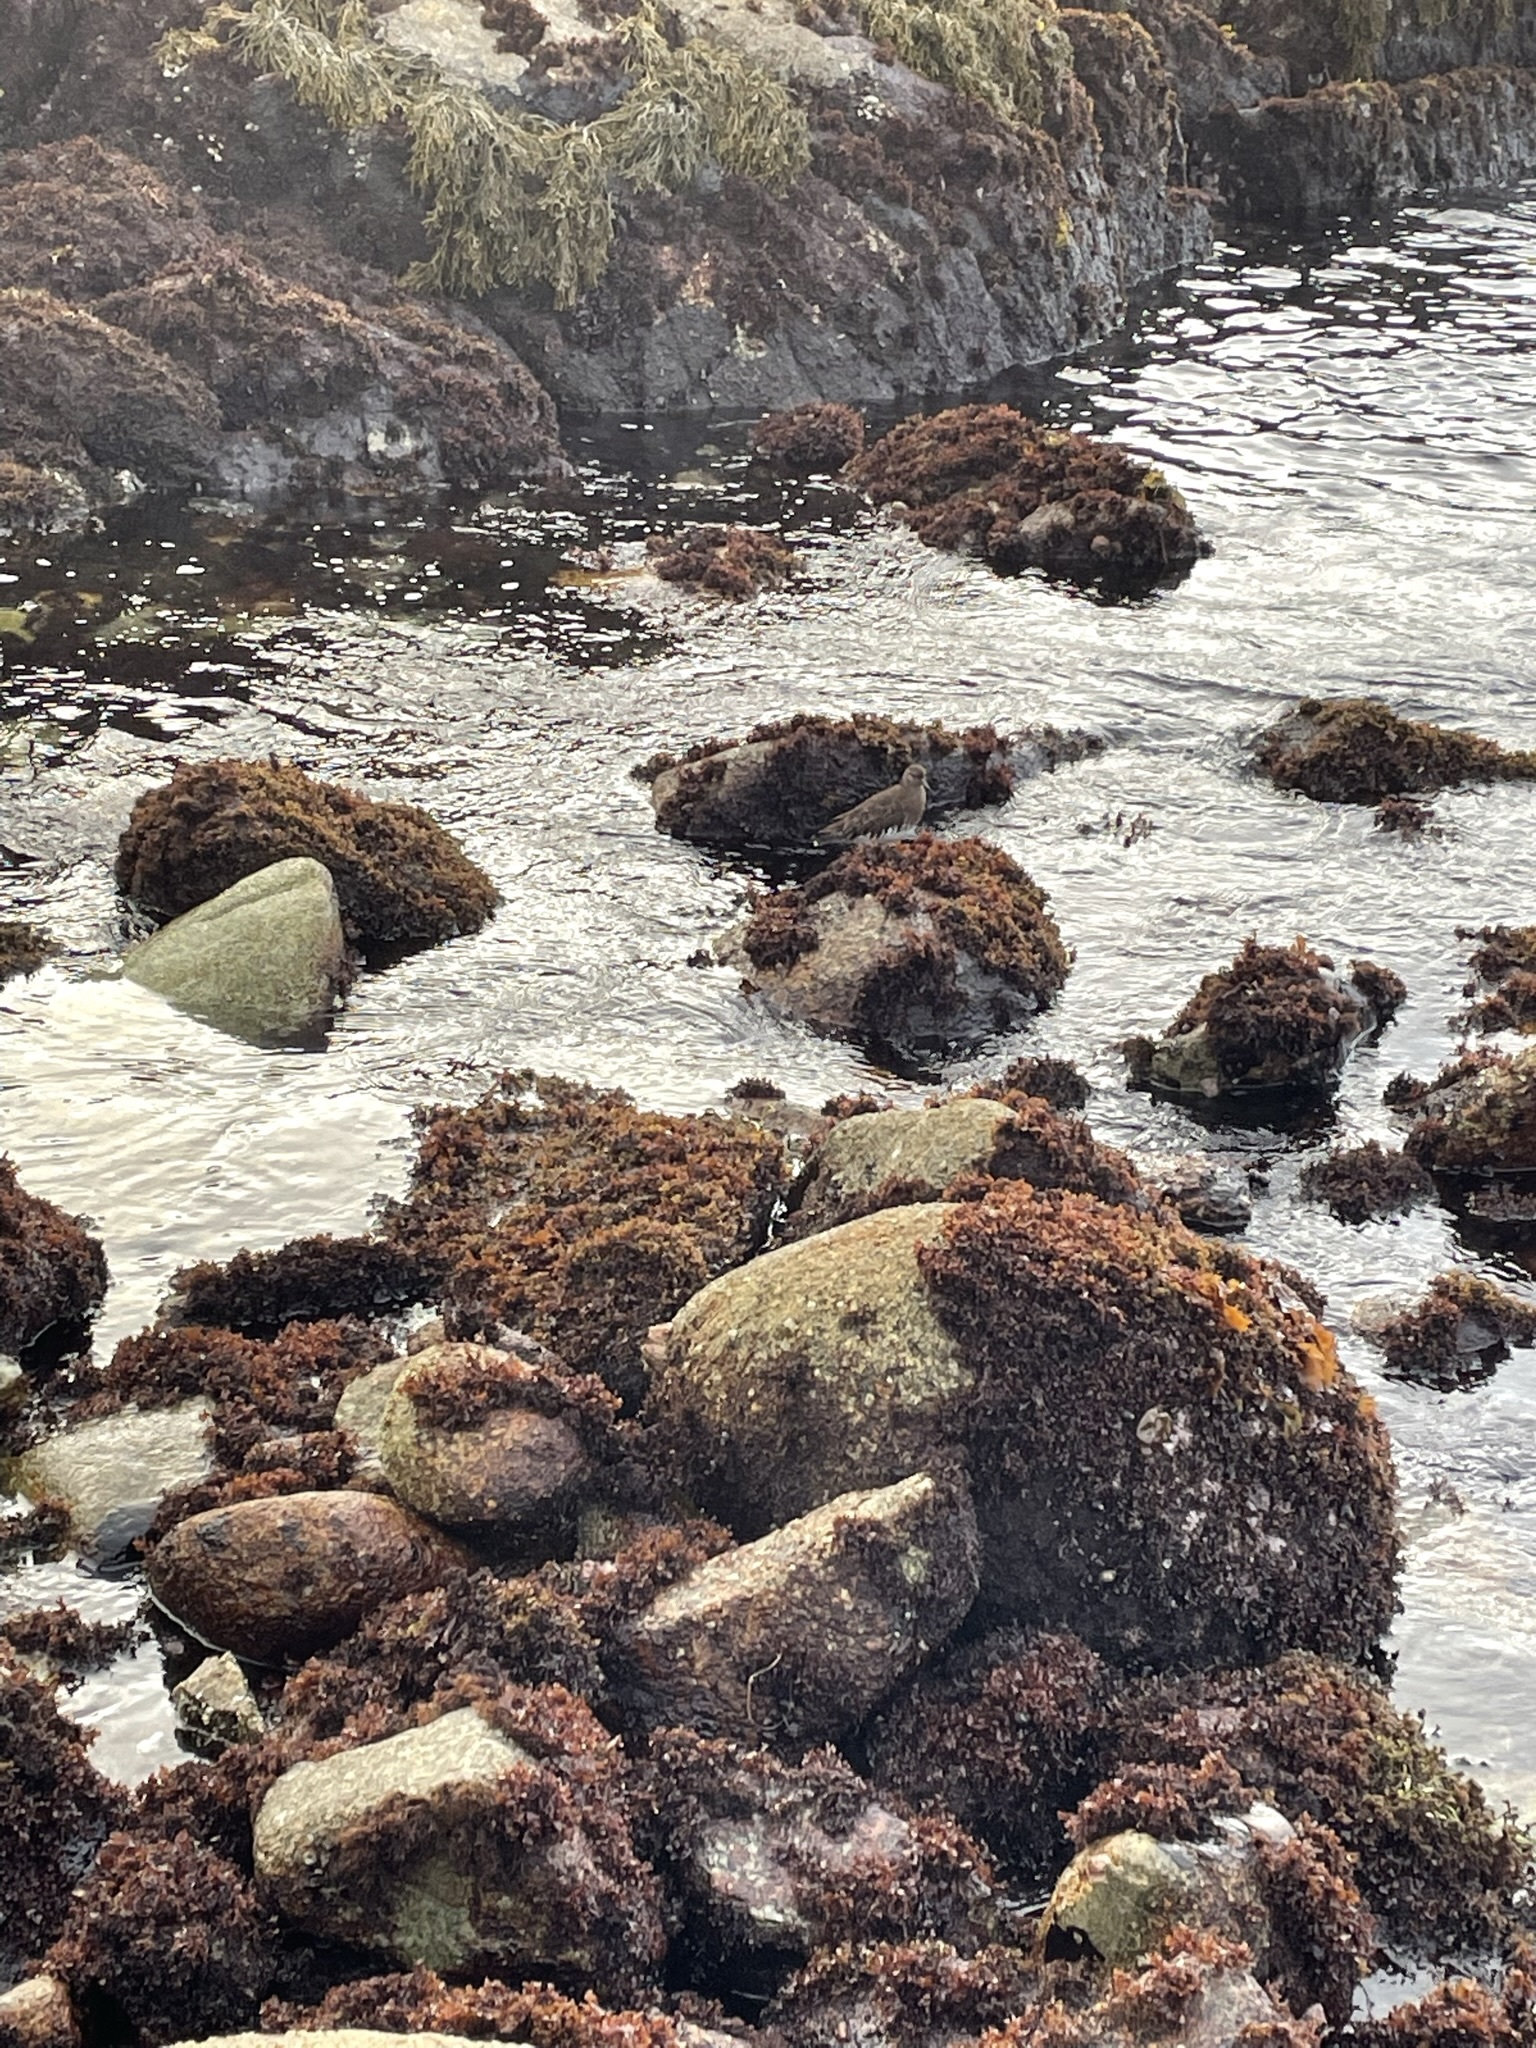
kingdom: Animalia
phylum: Chordata
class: Aves
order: Charadriiformes
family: Scolopacidae
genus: Arenaria
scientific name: Arenaria melanocephala
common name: Black turnstone
